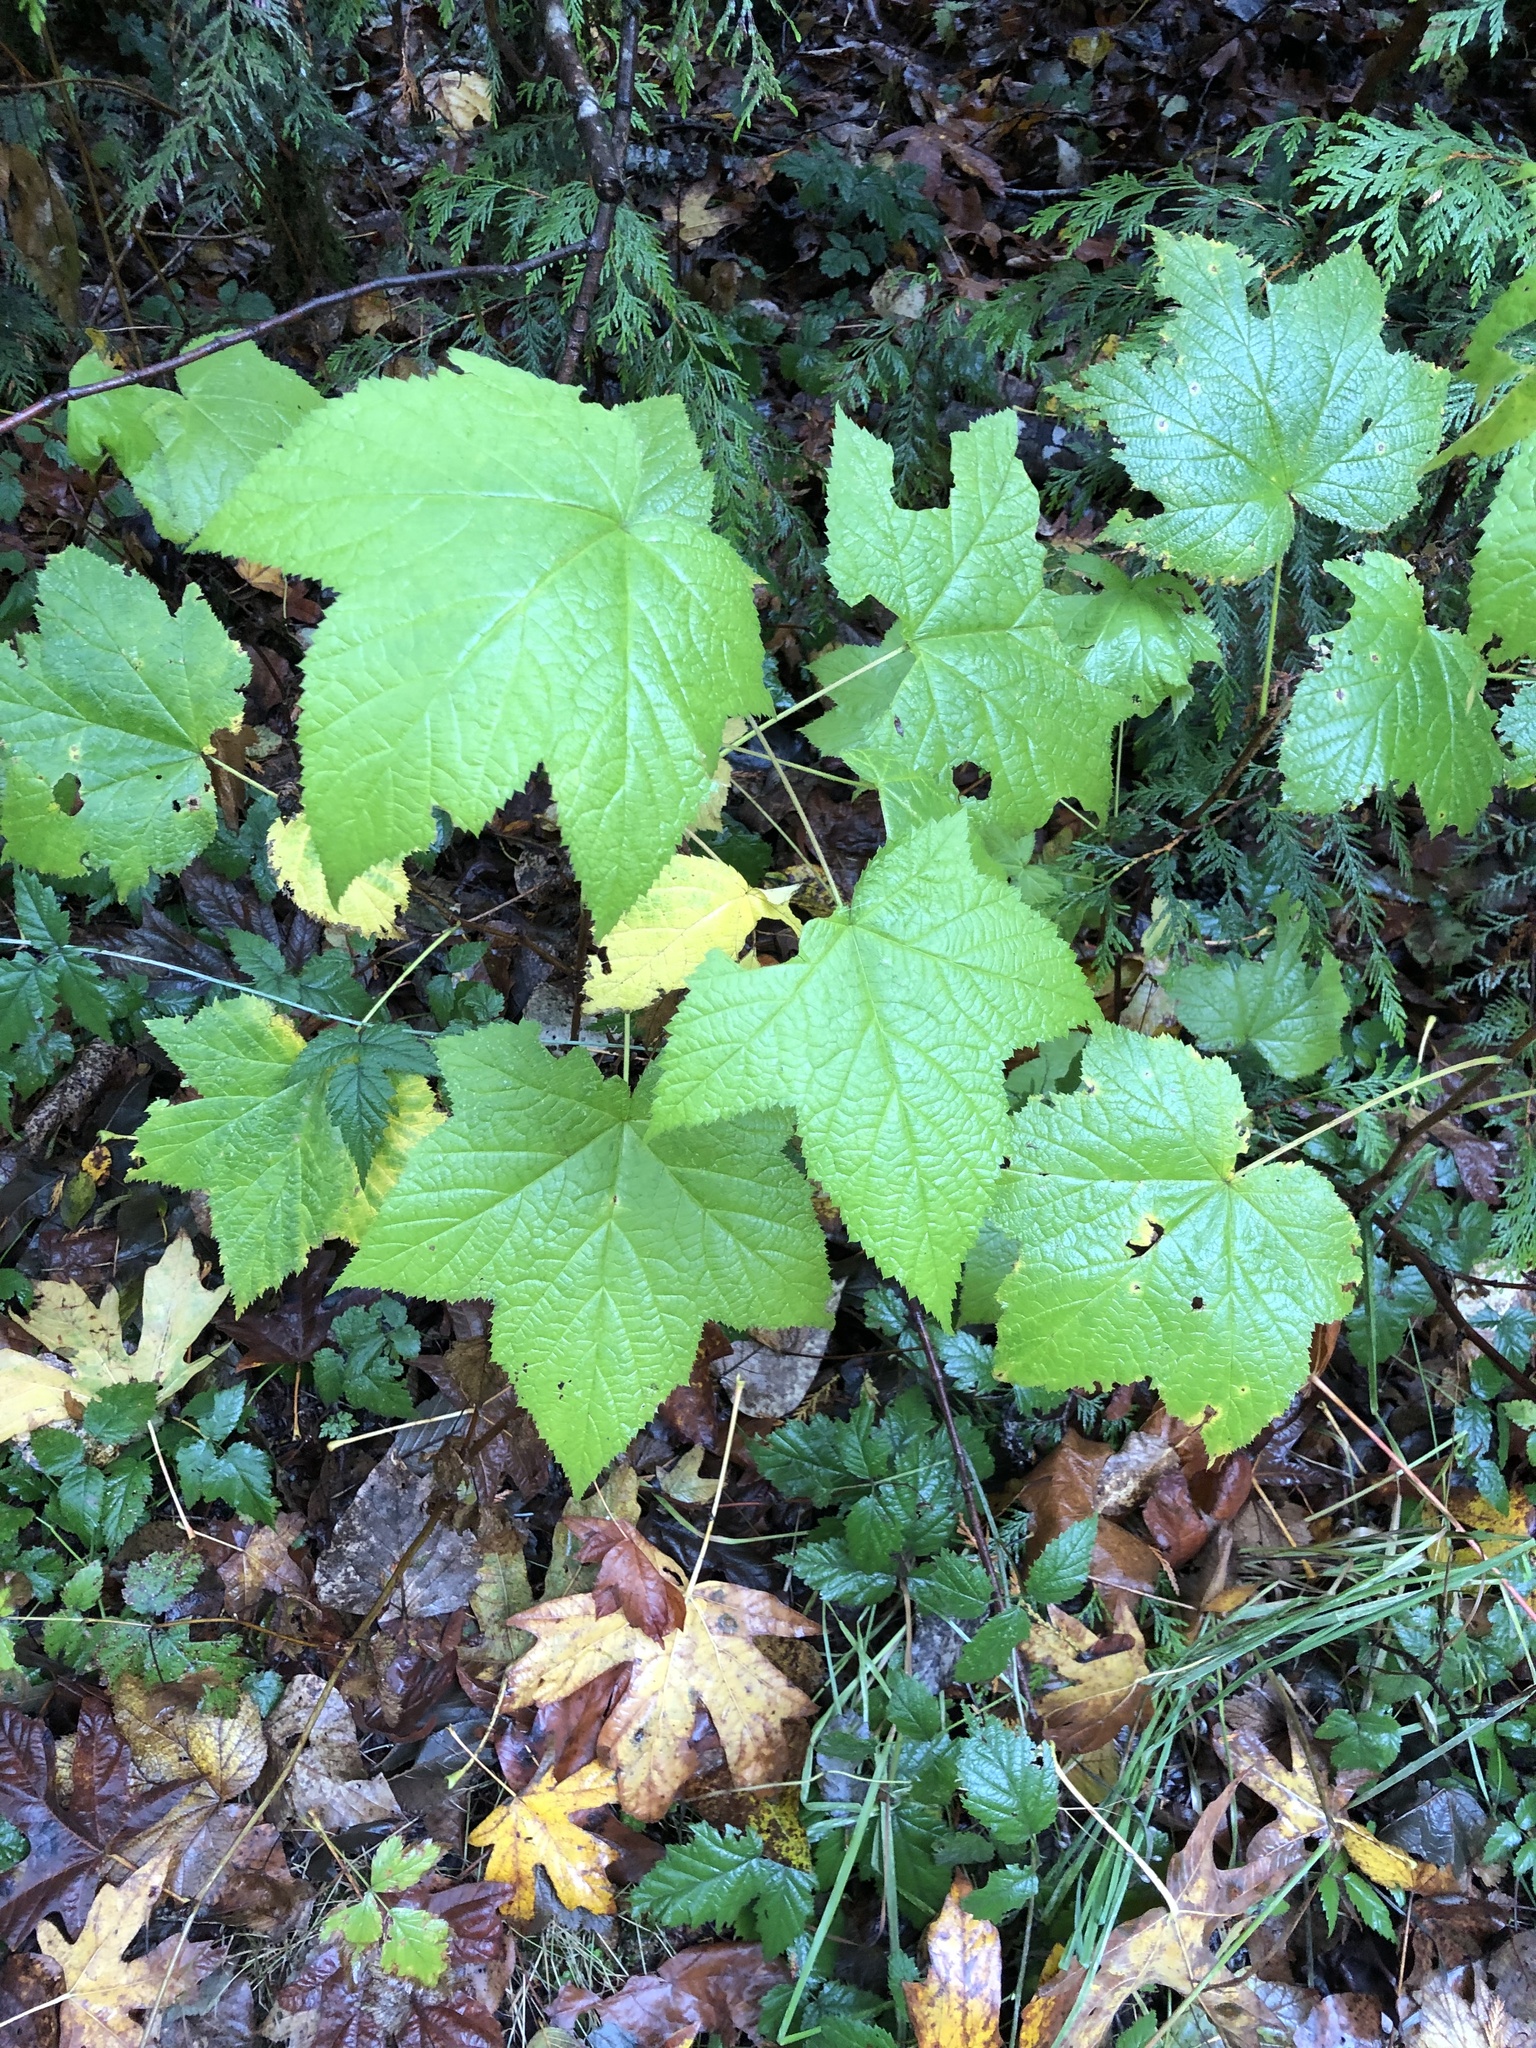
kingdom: Plantae
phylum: Tracheophyta
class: Magnoliopsida
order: Rosales
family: Rosaceae
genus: Rubus
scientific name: Rubus parviflorus
